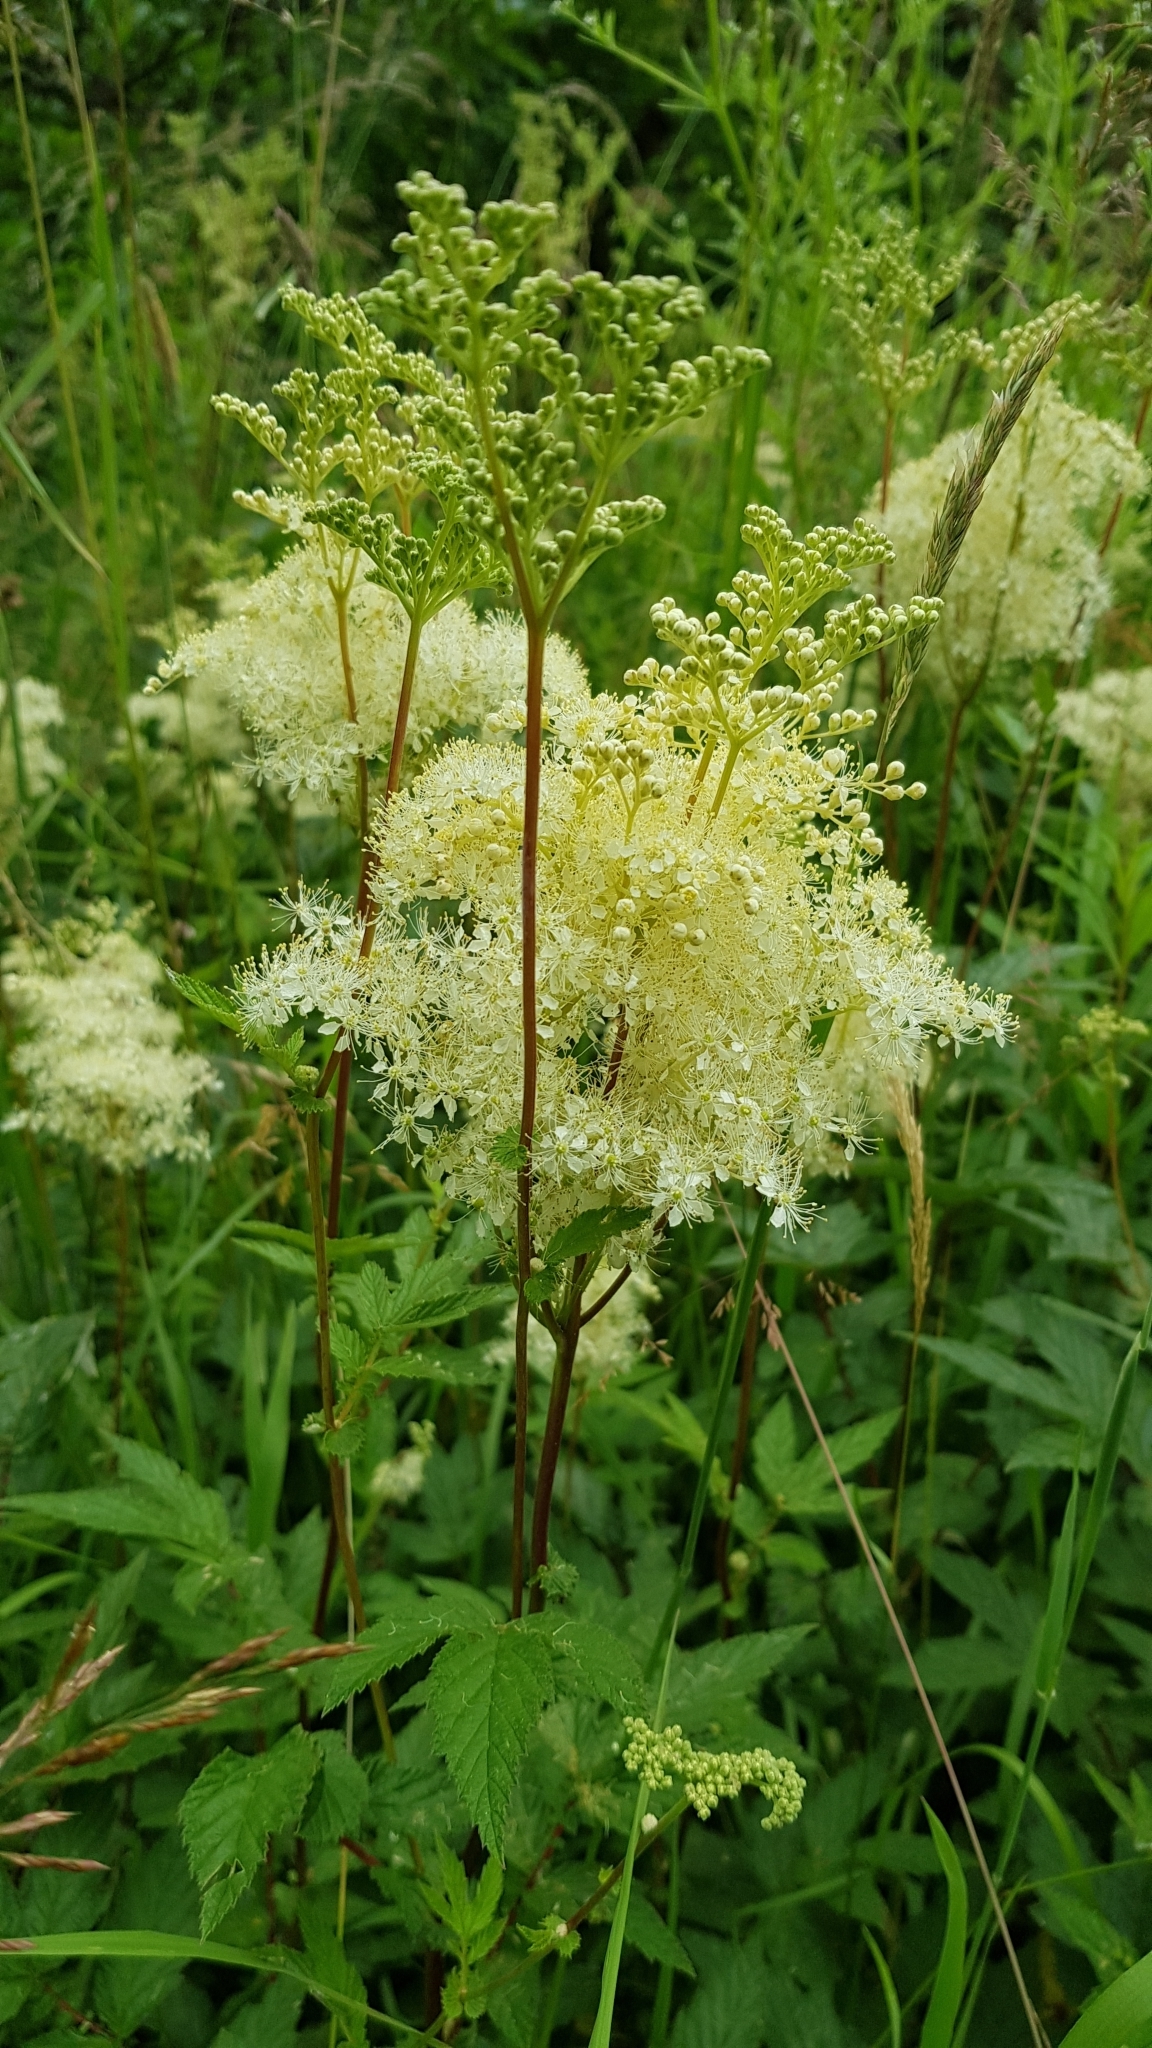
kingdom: Plantae
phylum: Tracheophyta
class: Magnoliopsida
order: Rosales
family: Rosaceae
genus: Filipendula
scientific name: Filipendula ulmaria
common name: Meadowsweet
